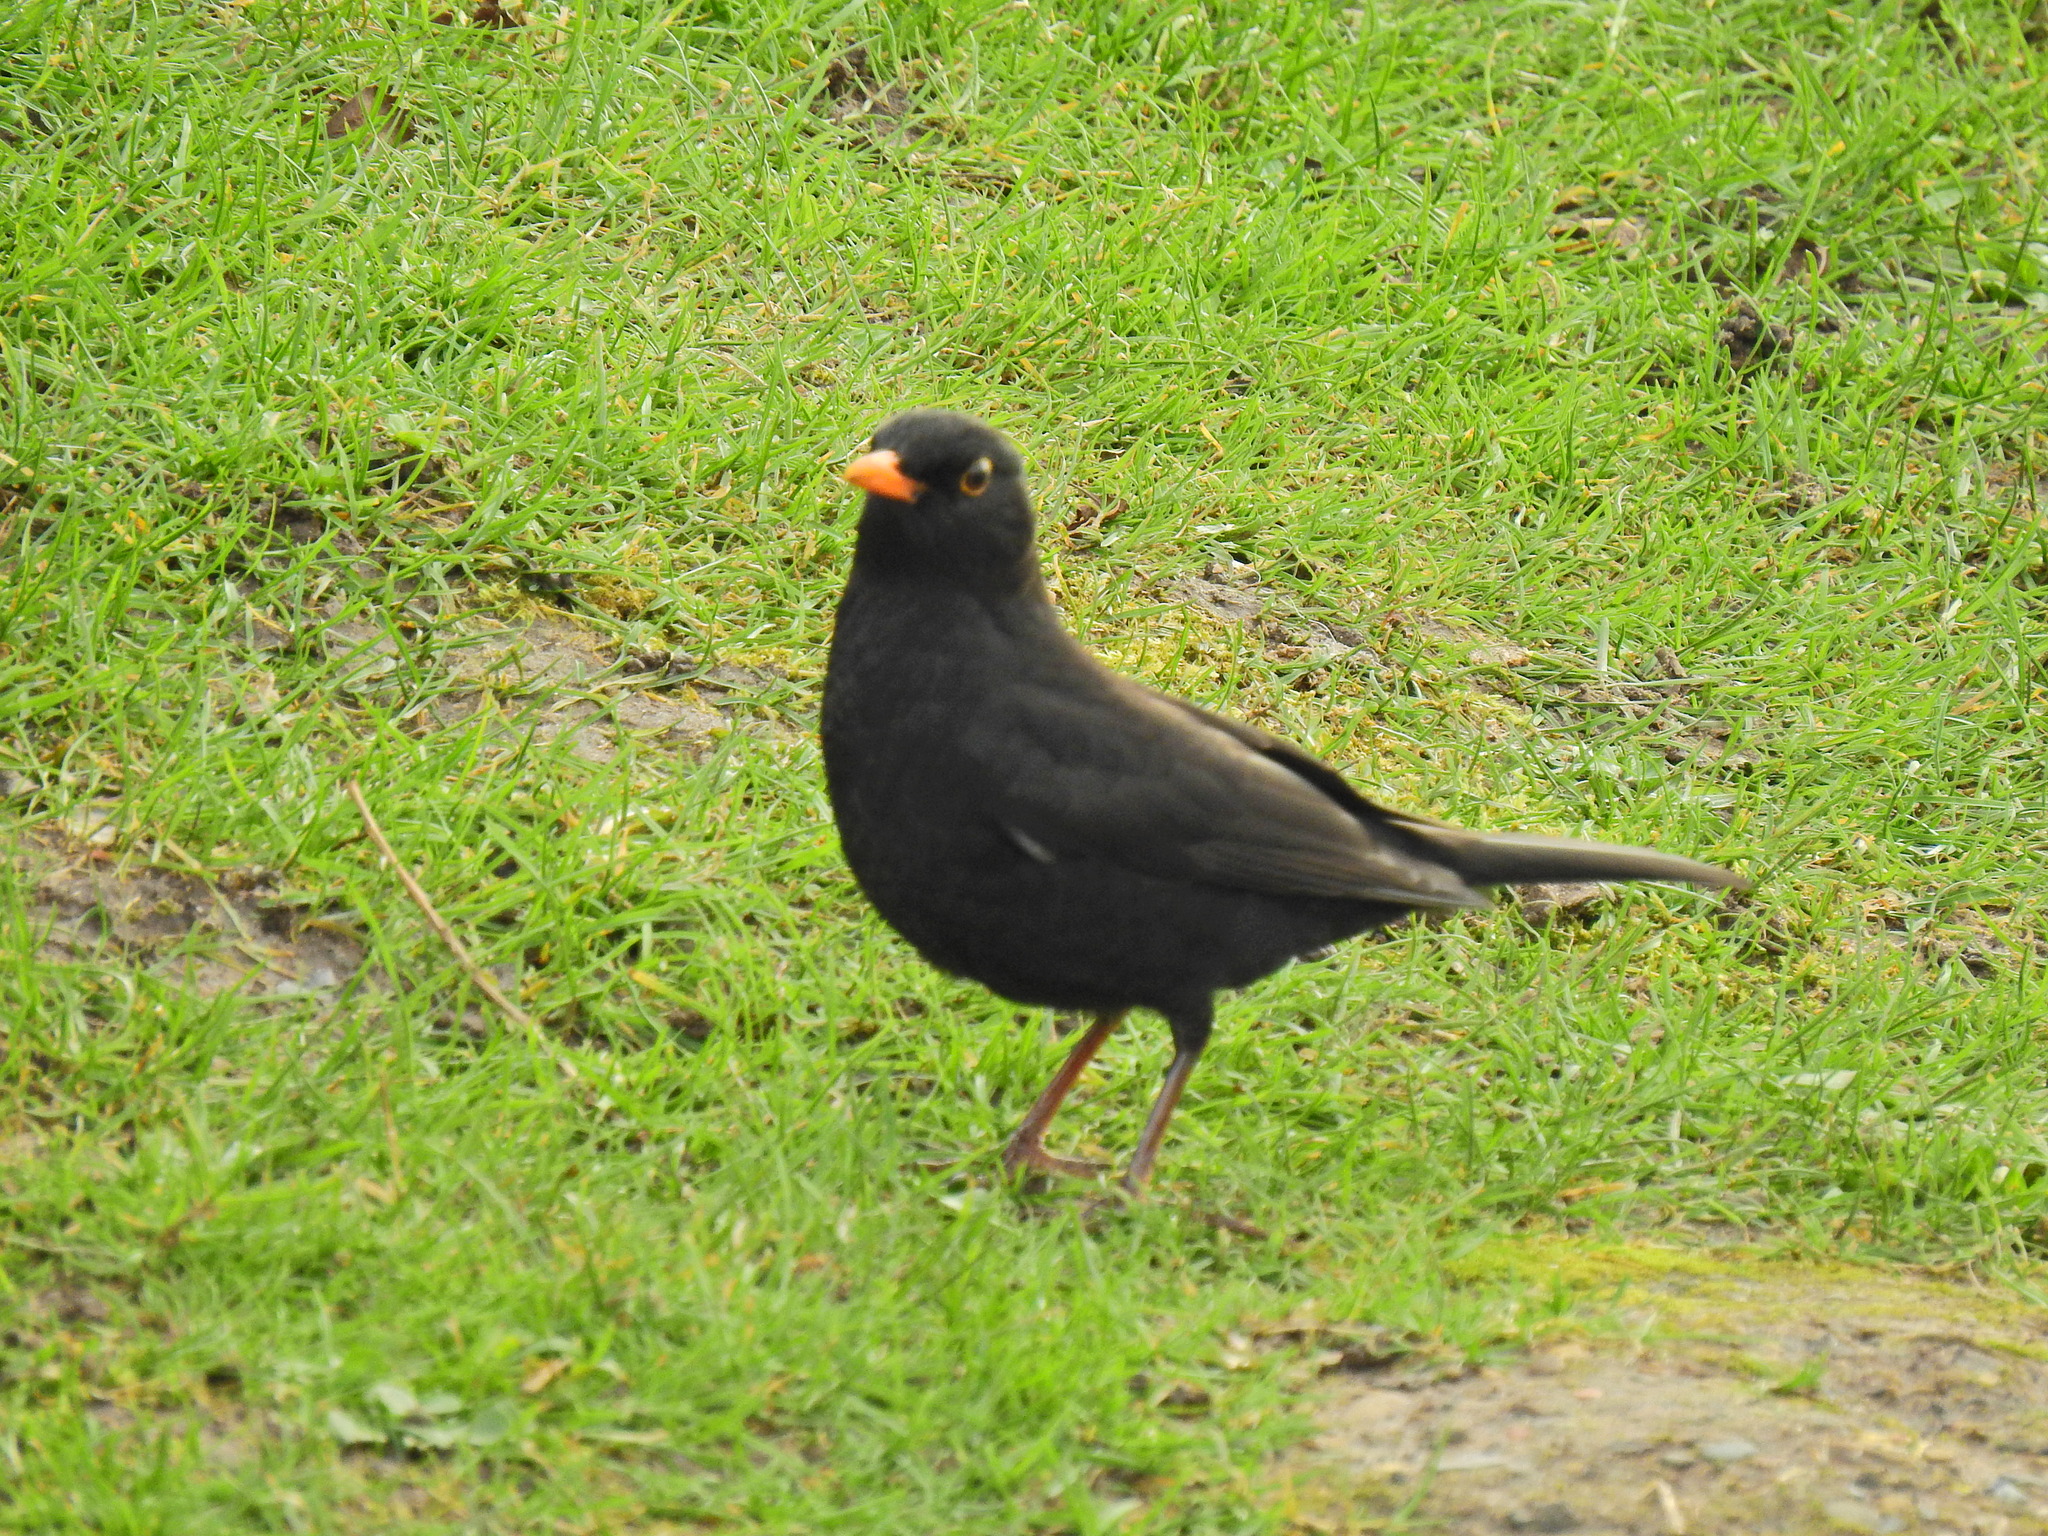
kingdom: Animalia
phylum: Chordata
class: Aves
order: Passeriformes
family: Turdidae
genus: Turdus
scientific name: Turdus merula
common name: Common blackbird
